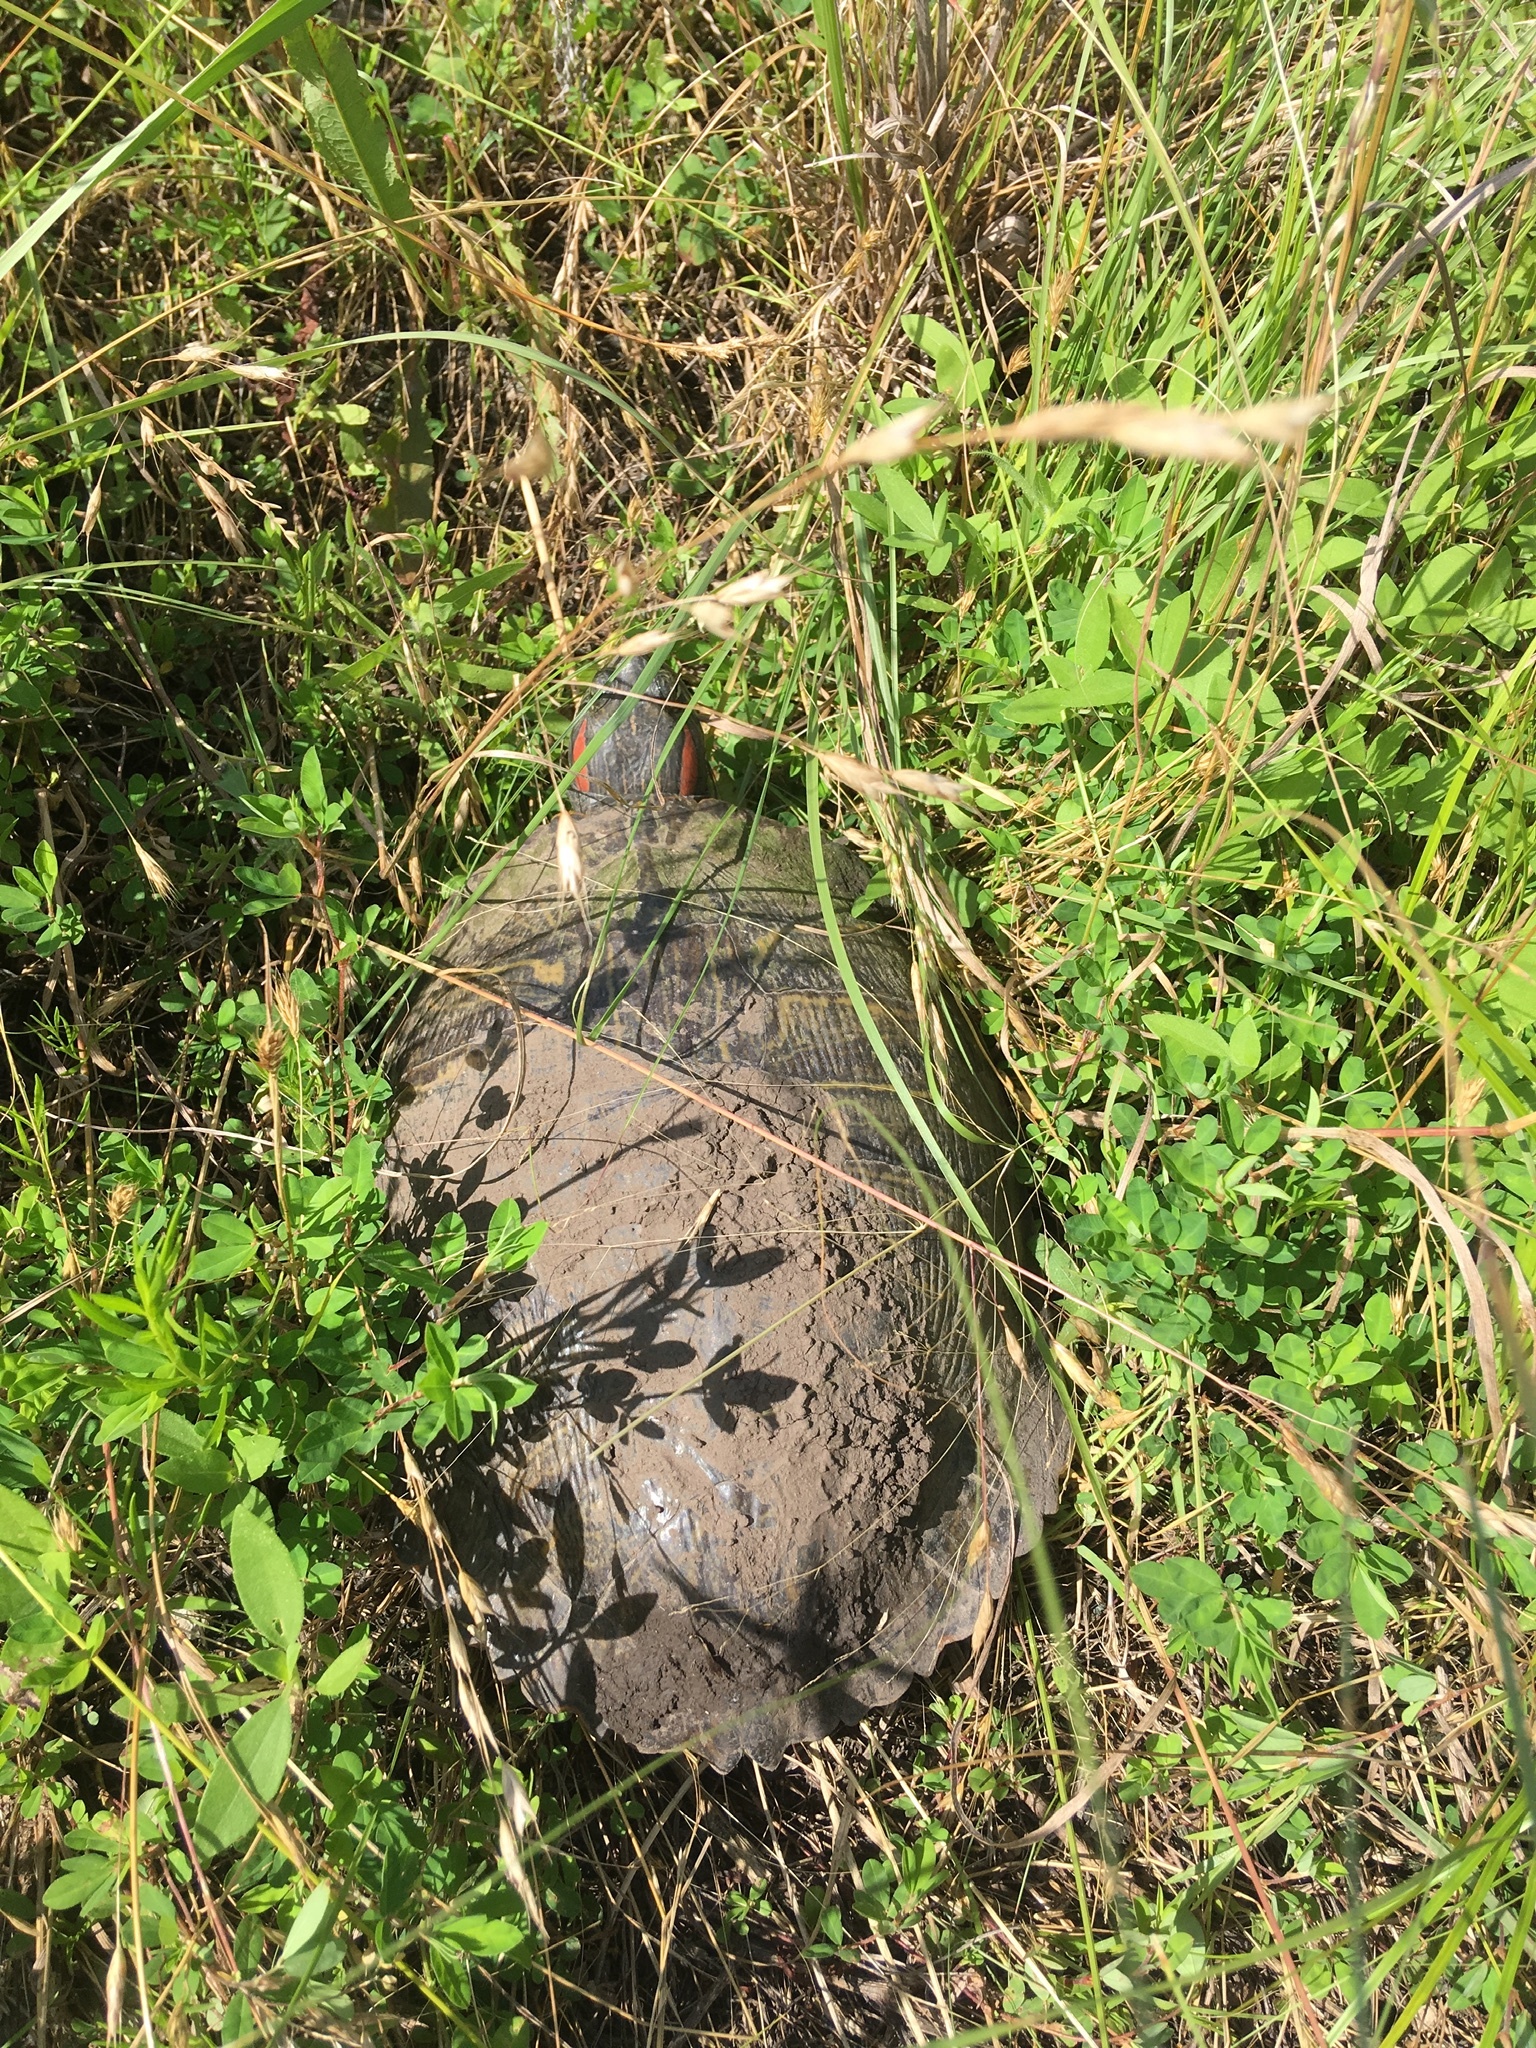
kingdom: Animalia
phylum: Chordata
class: Testudines
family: Emydidae
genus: Trachemys
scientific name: Trachemys scripta
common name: Slider
